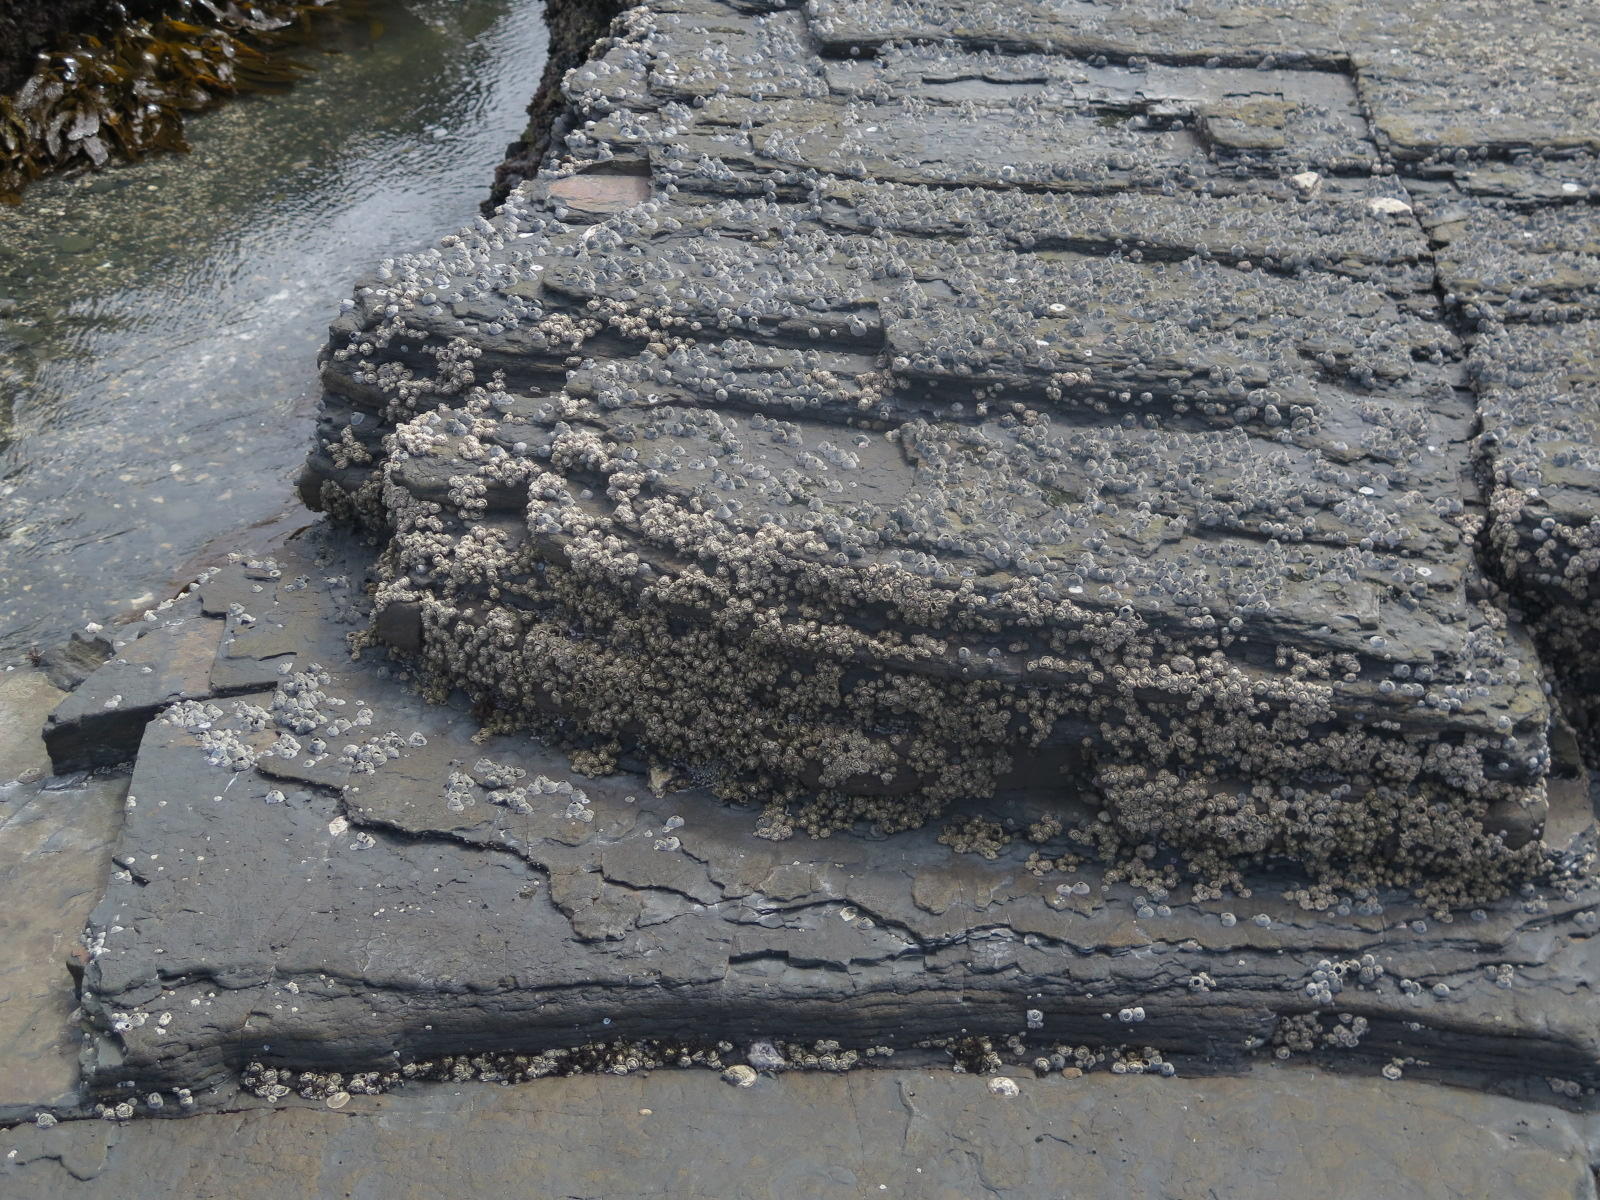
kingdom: Animalia
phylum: Arthropoda
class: Maxillopoda
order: Sessilia
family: Tetraclitidae
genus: Tetraclita
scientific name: Tetraclita serrata
